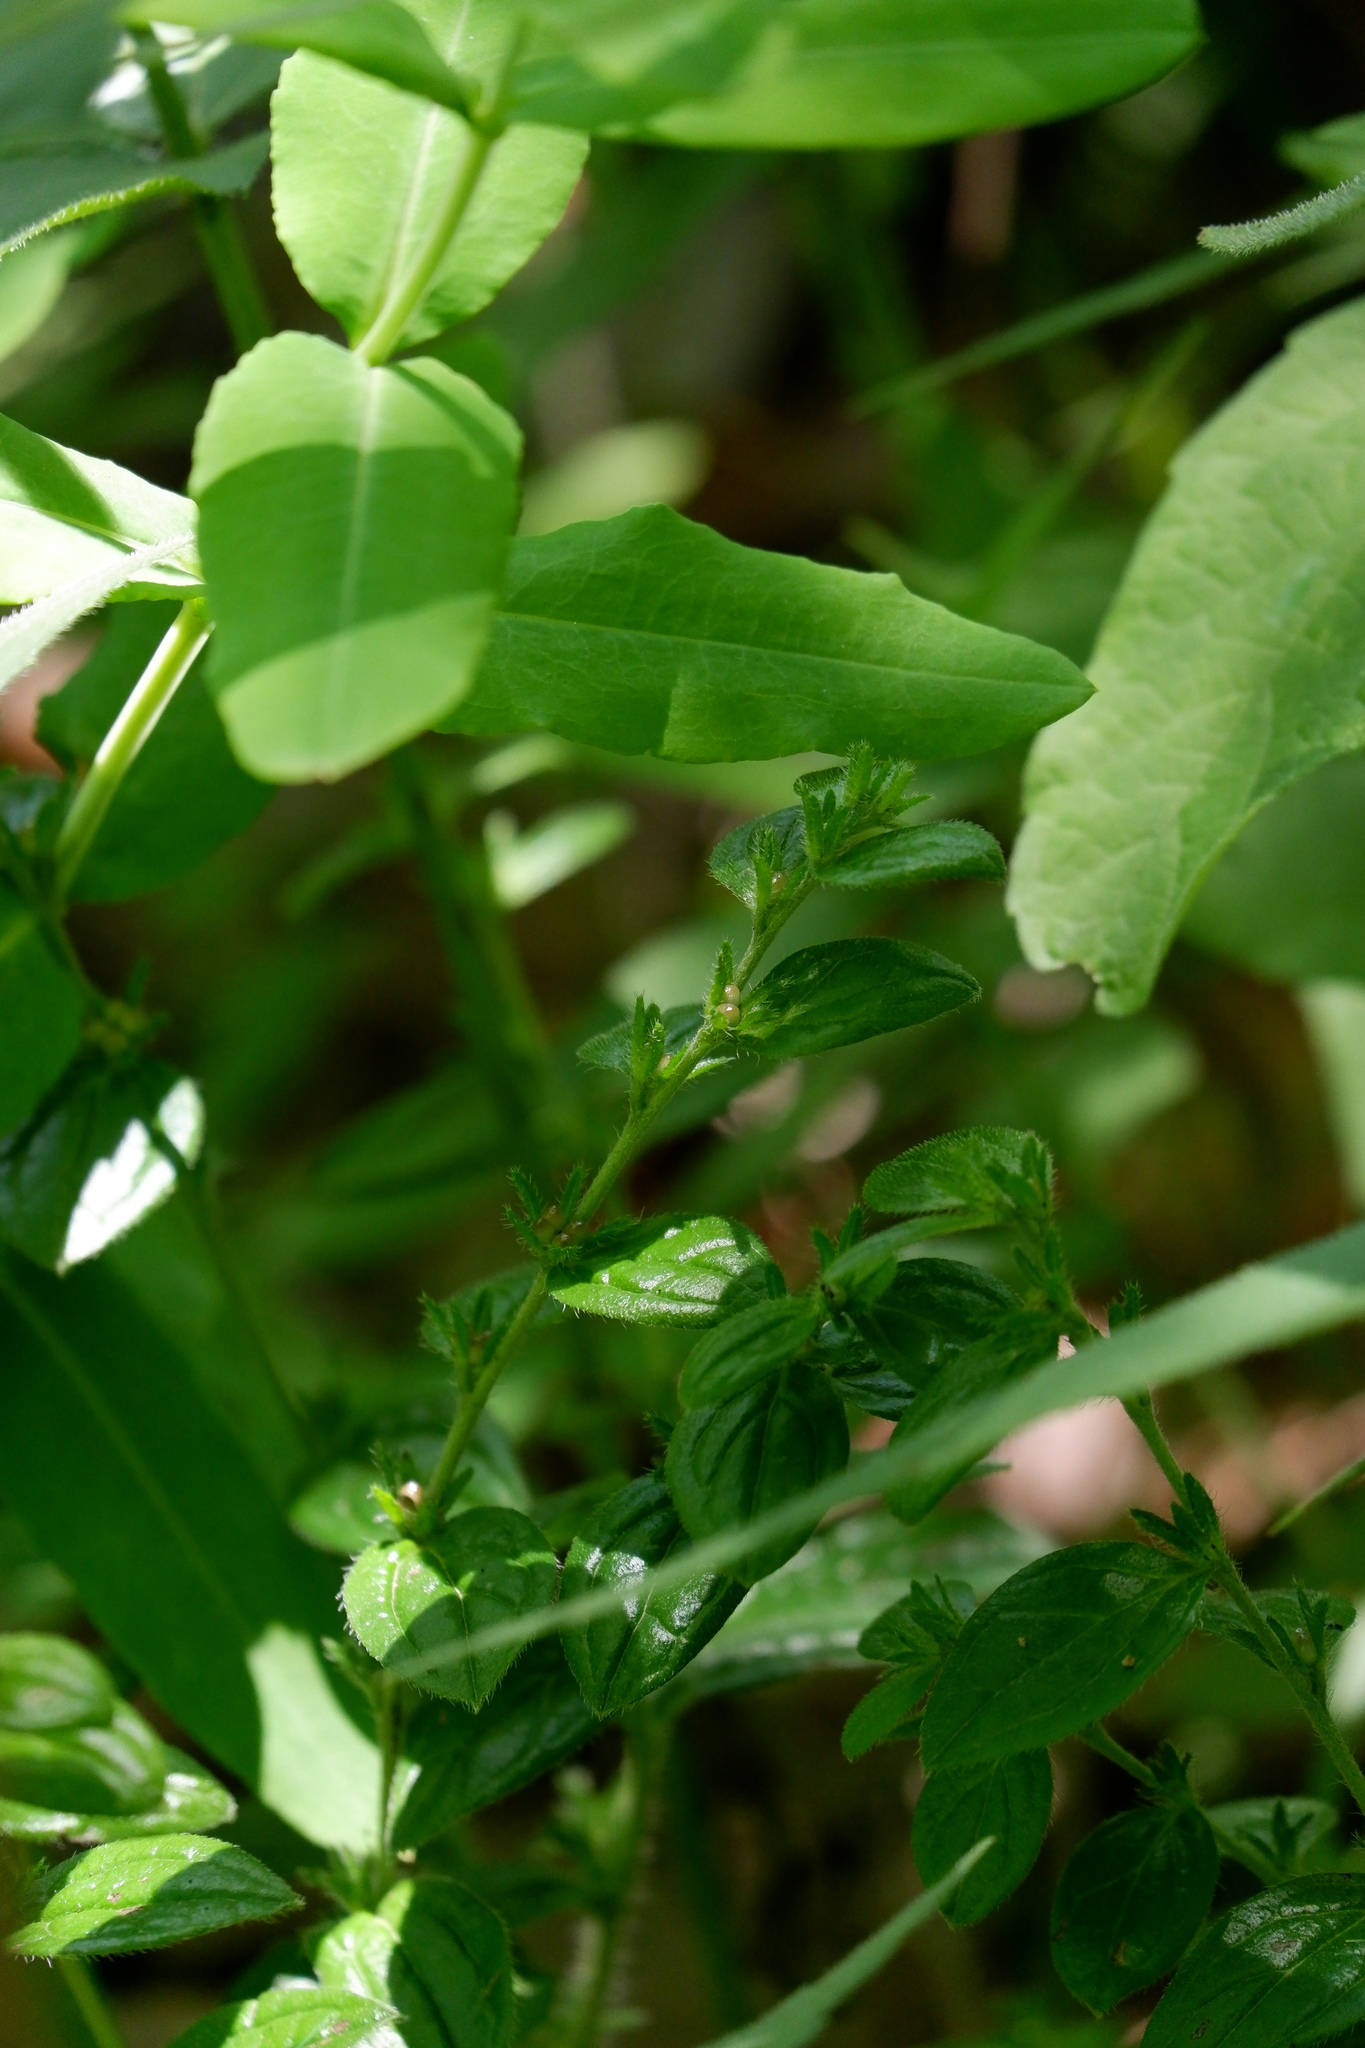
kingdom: Plantae
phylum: Tracheophyta
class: Magnoliopsida
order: Boraginales
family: Boraginaceae
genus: Lithospermum
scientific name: Lithospermum tuberosum
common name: Southern stoneseed
